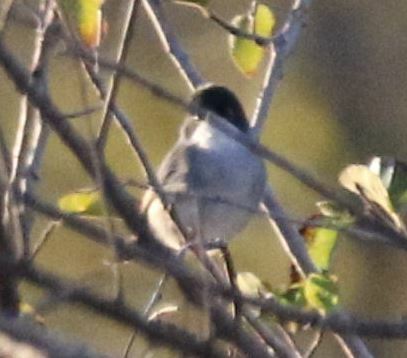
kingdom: Animalia
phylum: Chordata
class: Aves
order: Passeriformes
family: Sylviidae
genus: Curruca
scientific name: Curruca melanocephala
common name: Sardinian warbler
